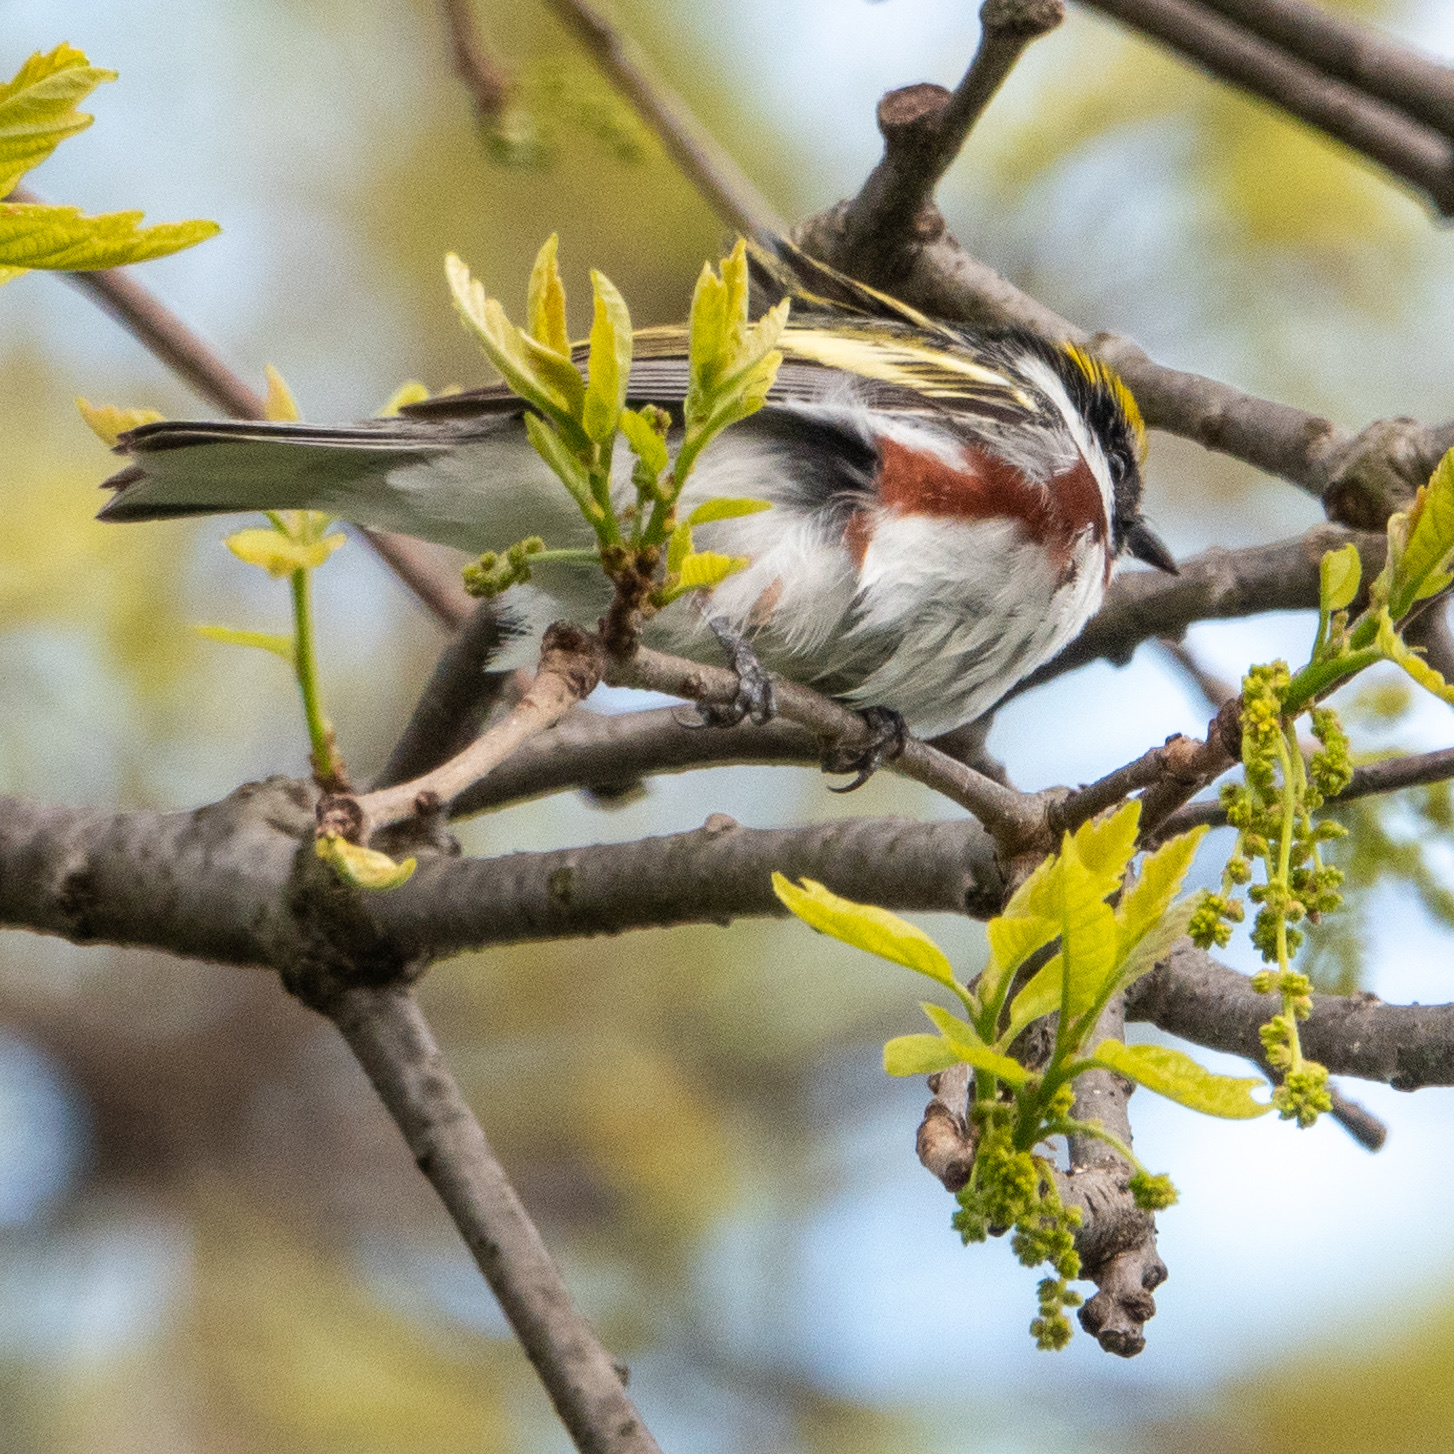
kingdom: Animalia
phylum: Chordata
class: Aves
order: Passeriformes
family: Parulidae
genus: Setophaga
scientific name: Setophaga pensylvanica
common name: Chestnut-sided warbler
